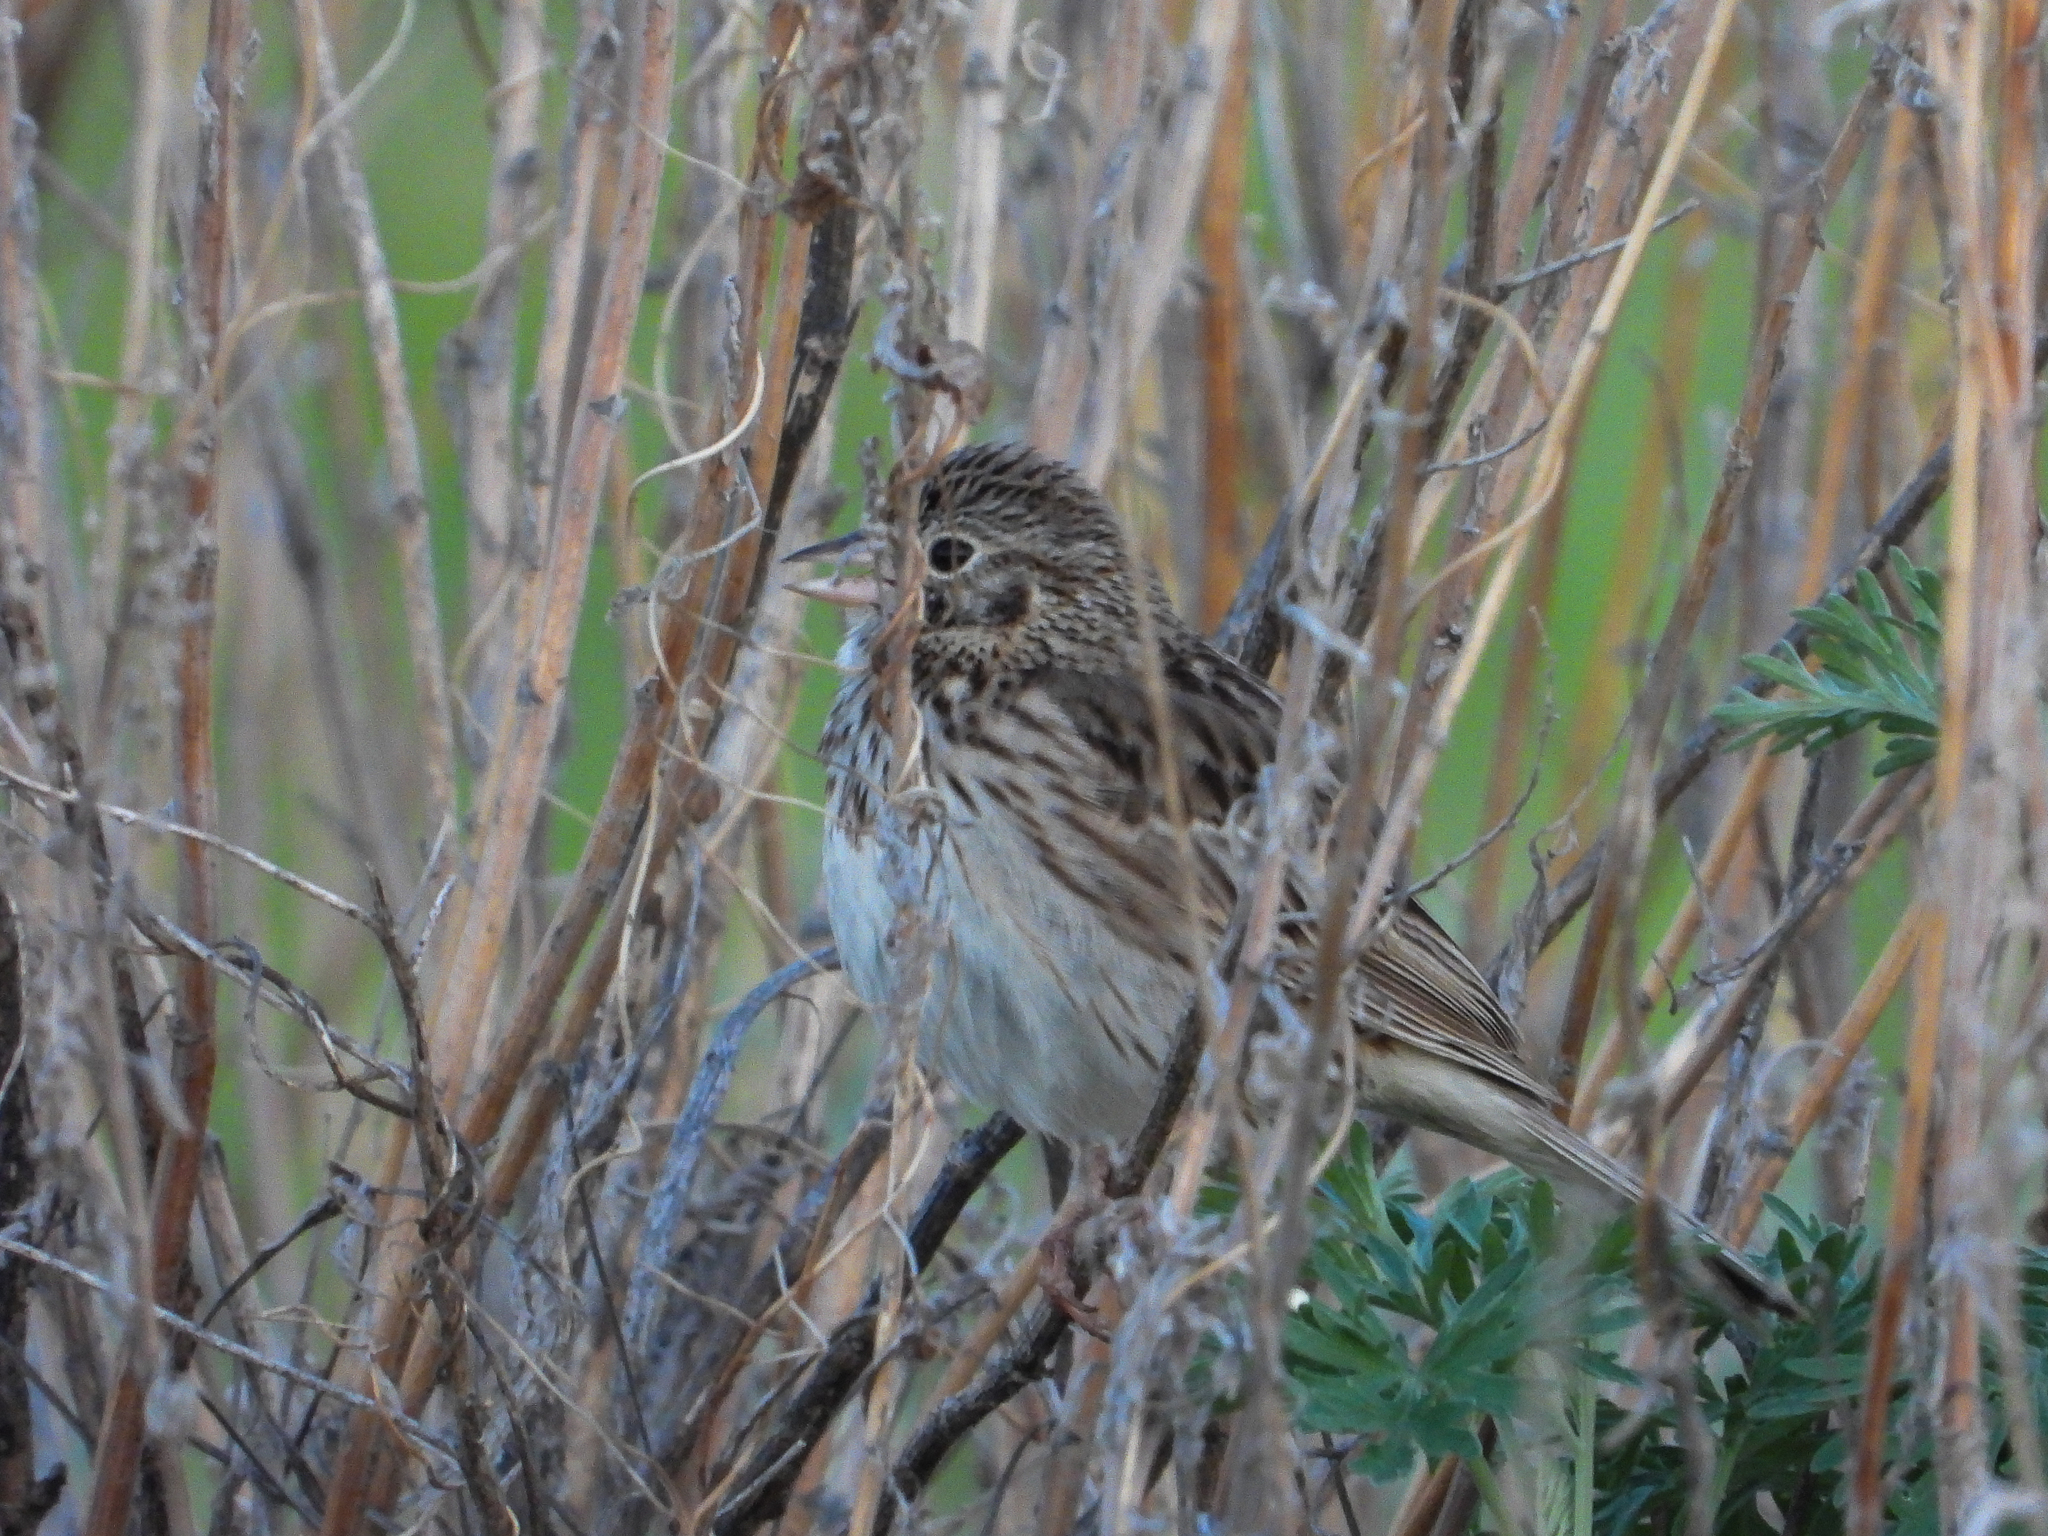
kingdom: Animalia
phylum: Chordata
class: Aves
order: Passeriformes
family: Passerellidae
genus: Pooecetes
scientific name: Pooecetes gramineus
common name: Vesper sparrow
